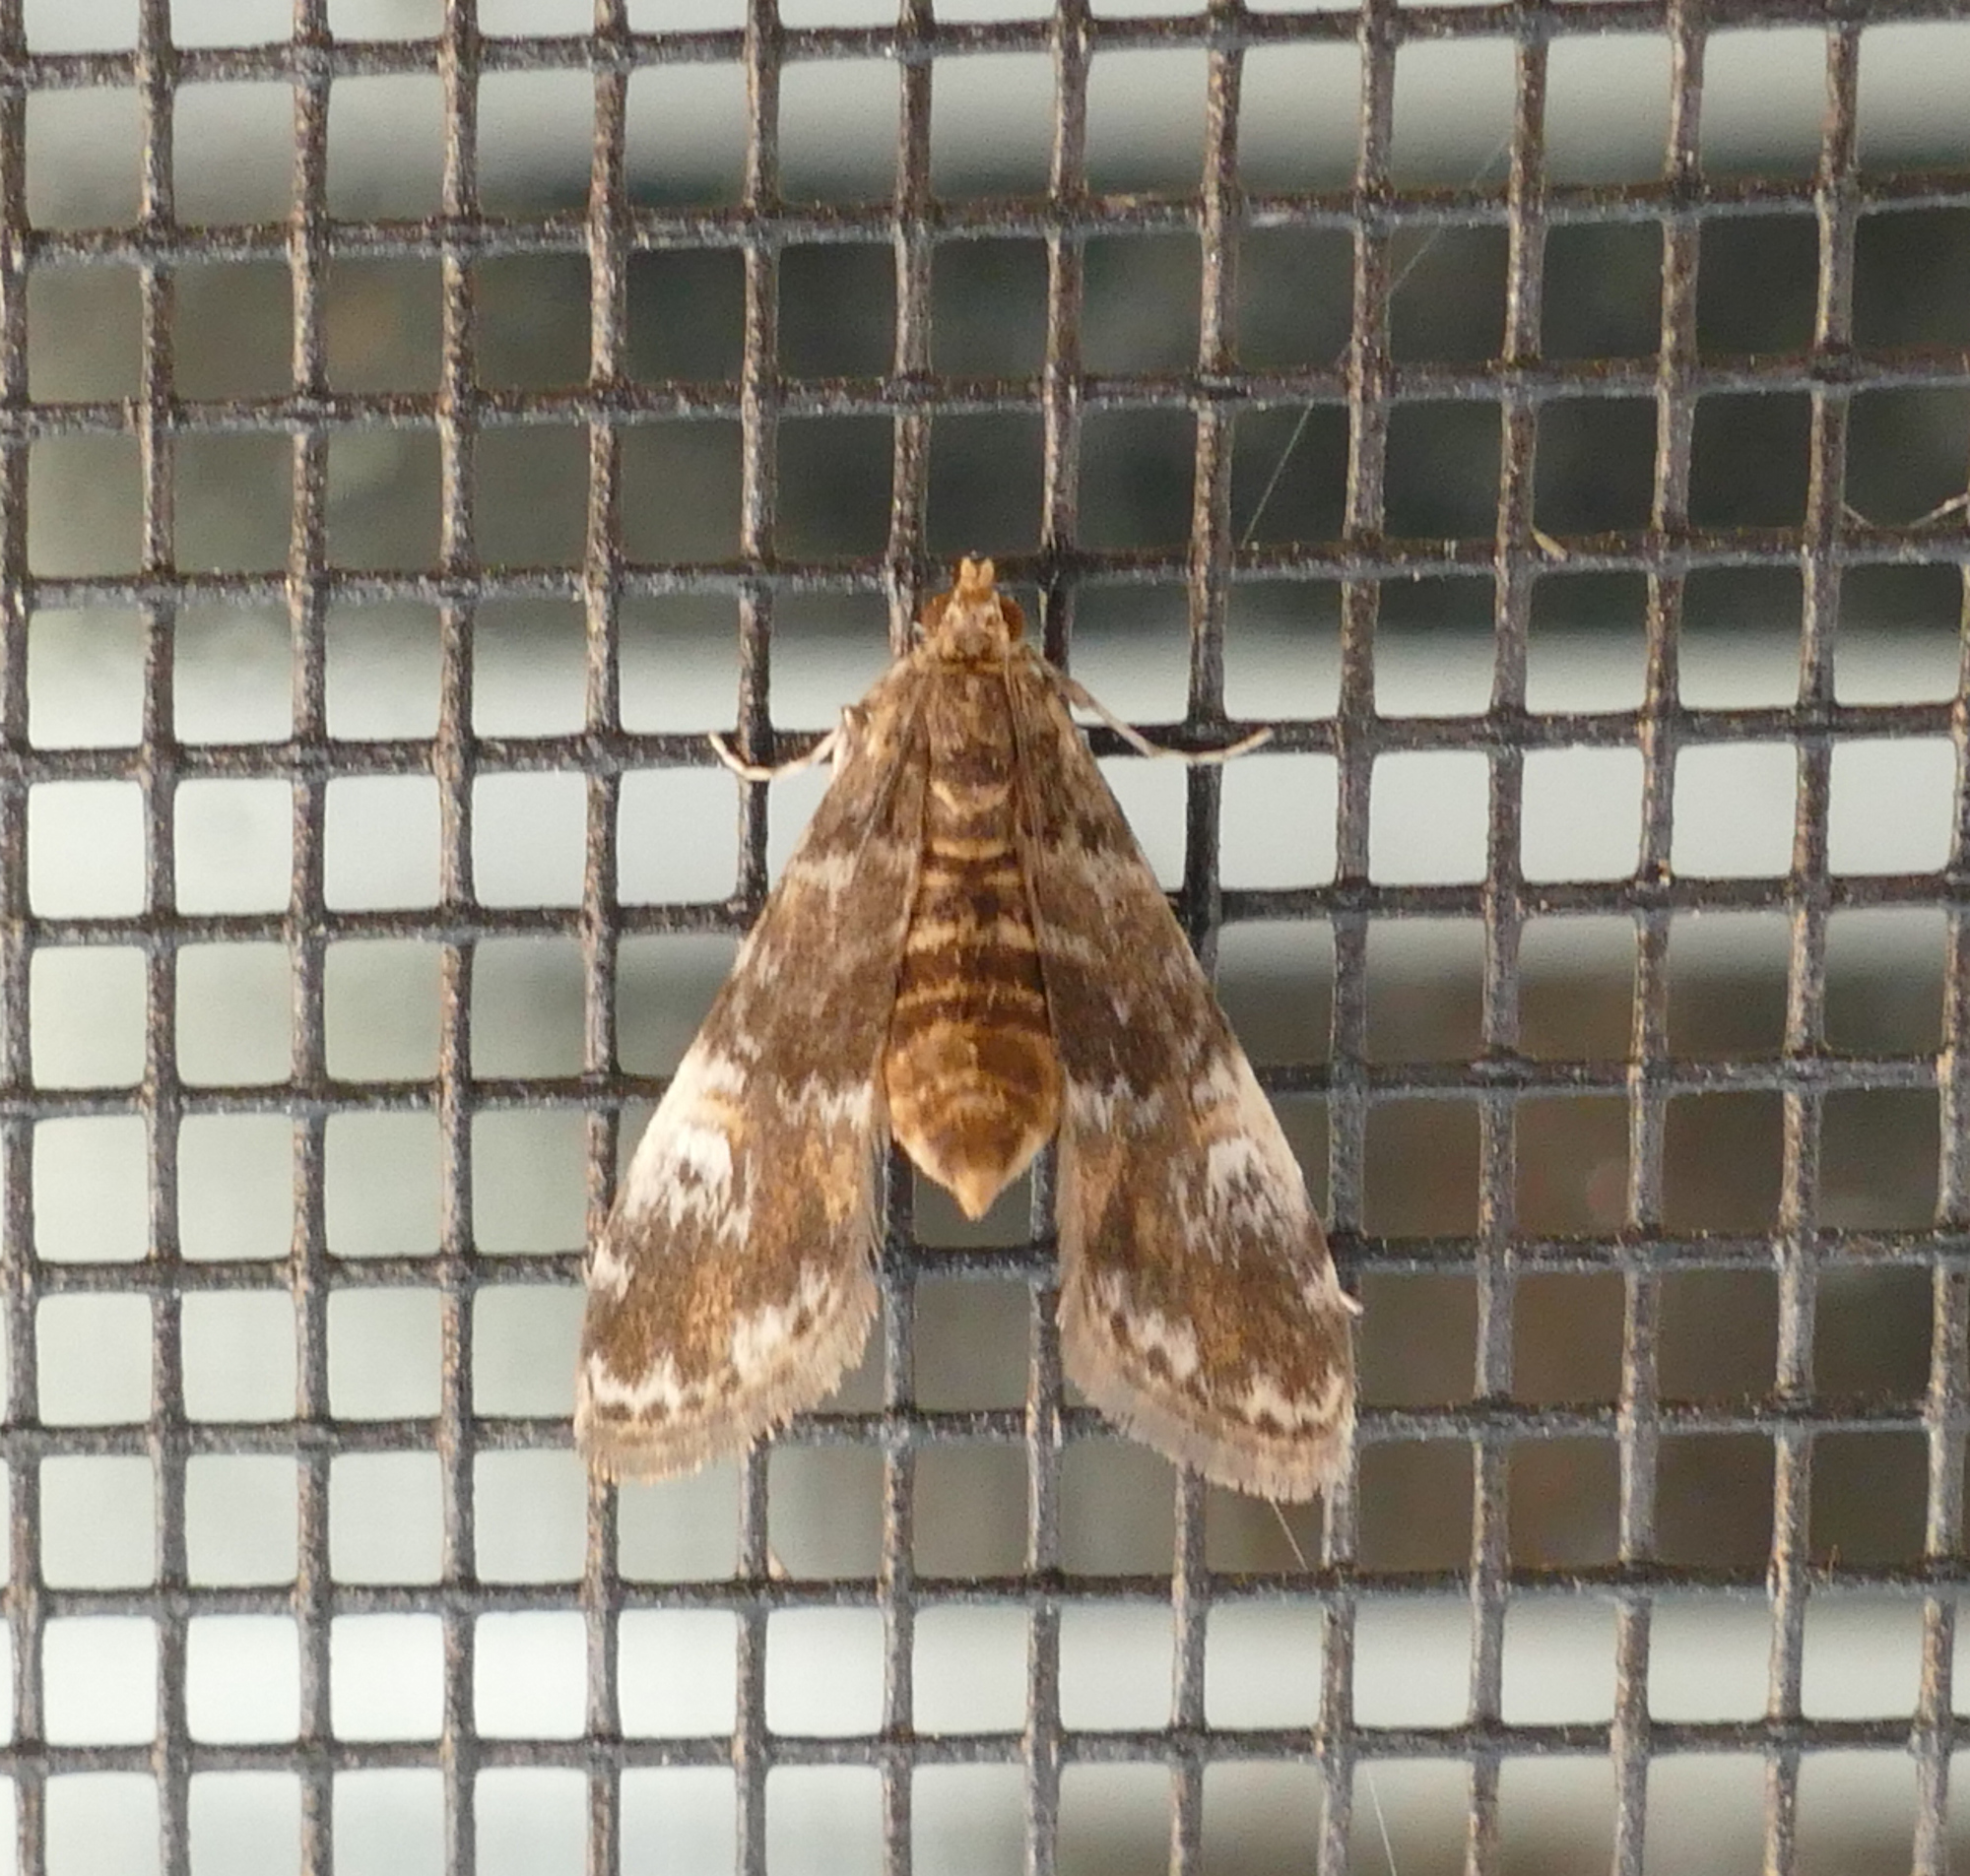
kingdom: Animalia
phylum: Arthropoda
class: Insecta
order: Lepidoptera
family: Crambidae
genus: Elophila
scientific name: Elophila obliteralis
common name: Waterlily leafcutter moth
